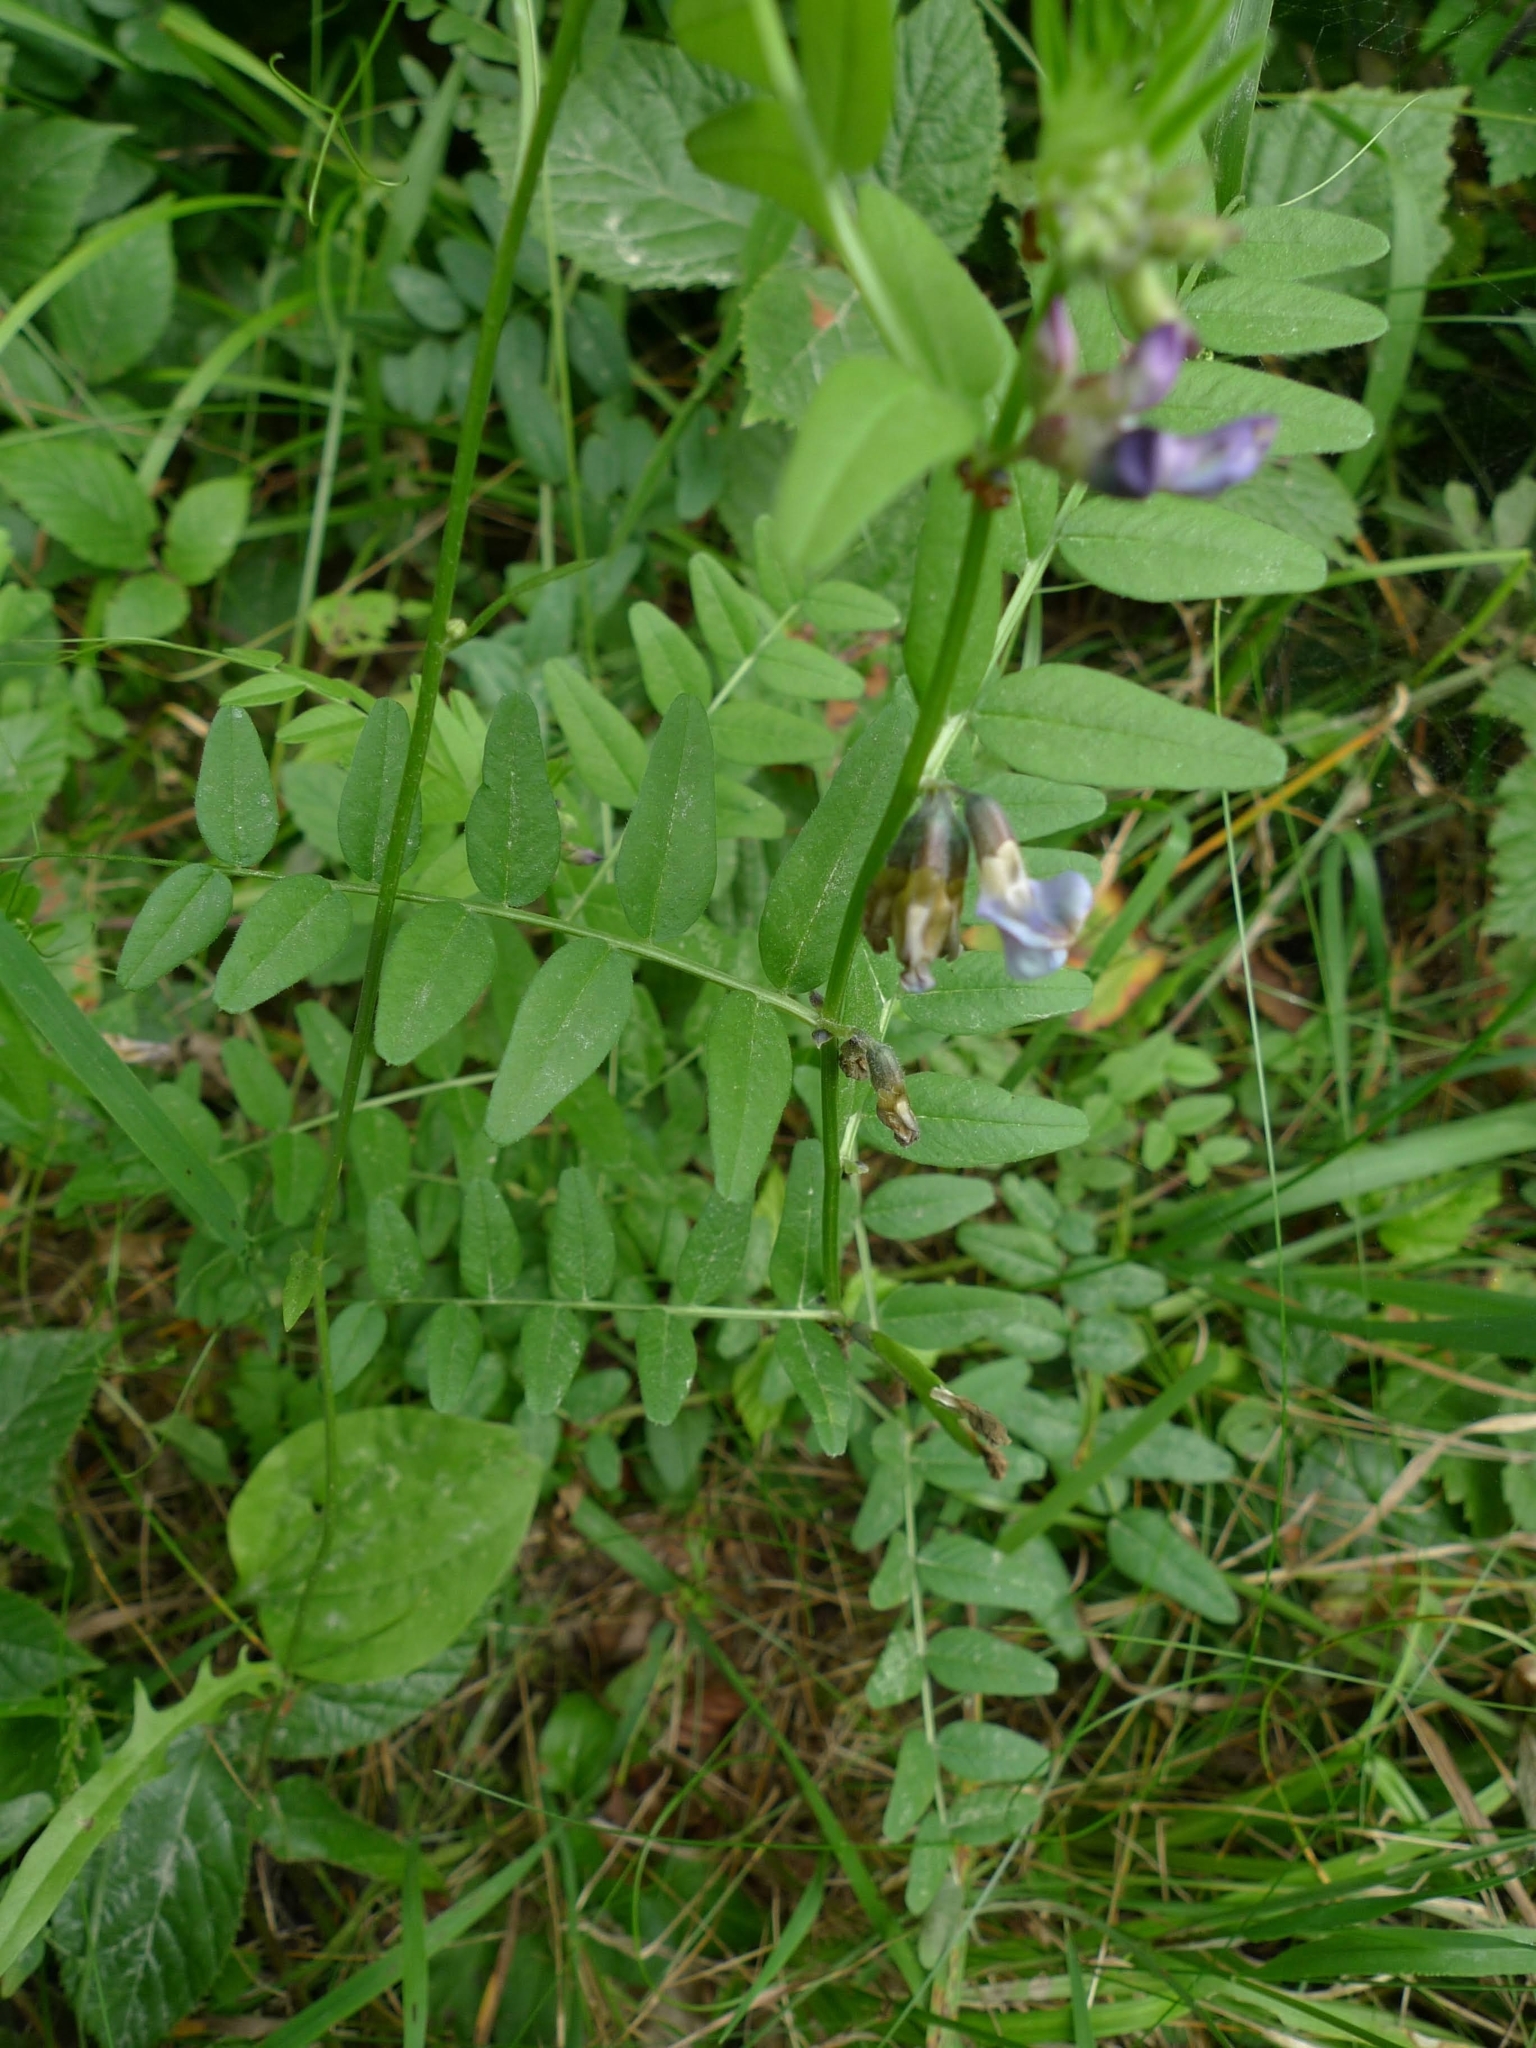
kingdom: Plantae
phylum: Tracheophyta
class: Magnoliopsida
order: Fabales
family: Fabaceae
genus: Vicia
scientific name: Vicia sepium
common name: Bush vetch
